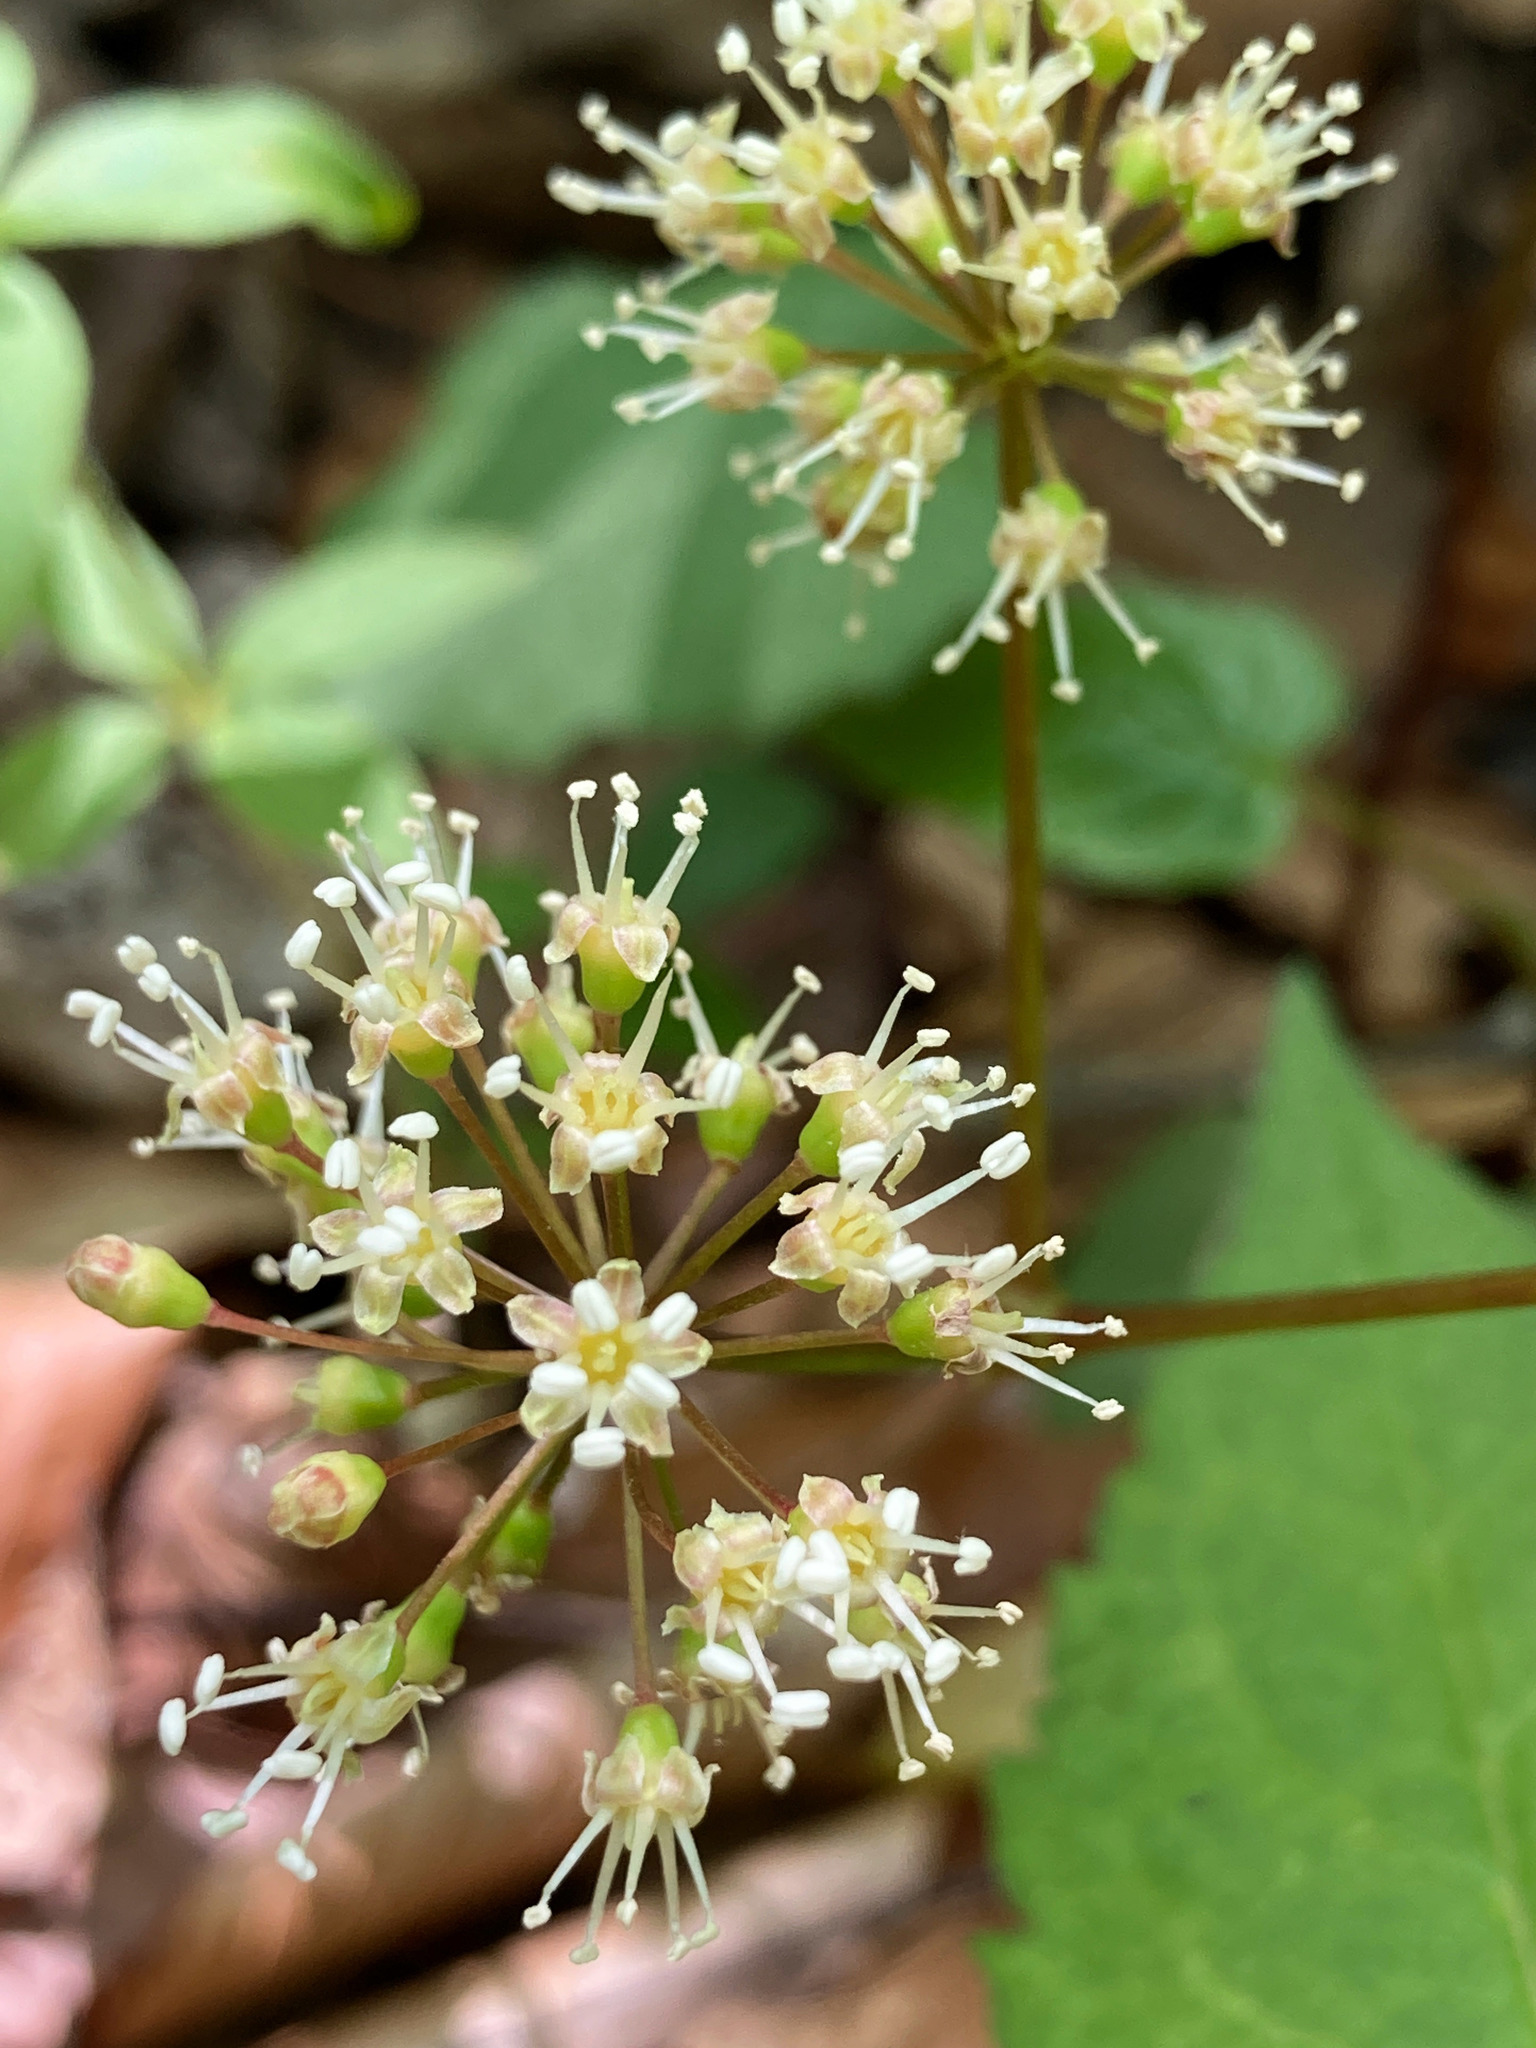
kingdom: Plantae
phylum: Tracheophyta
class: Magnoliopsida
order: Apiales
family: Araliaceae
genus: Aralia
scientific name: Aralia nudicaulis
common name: Wild sarsaparilla
